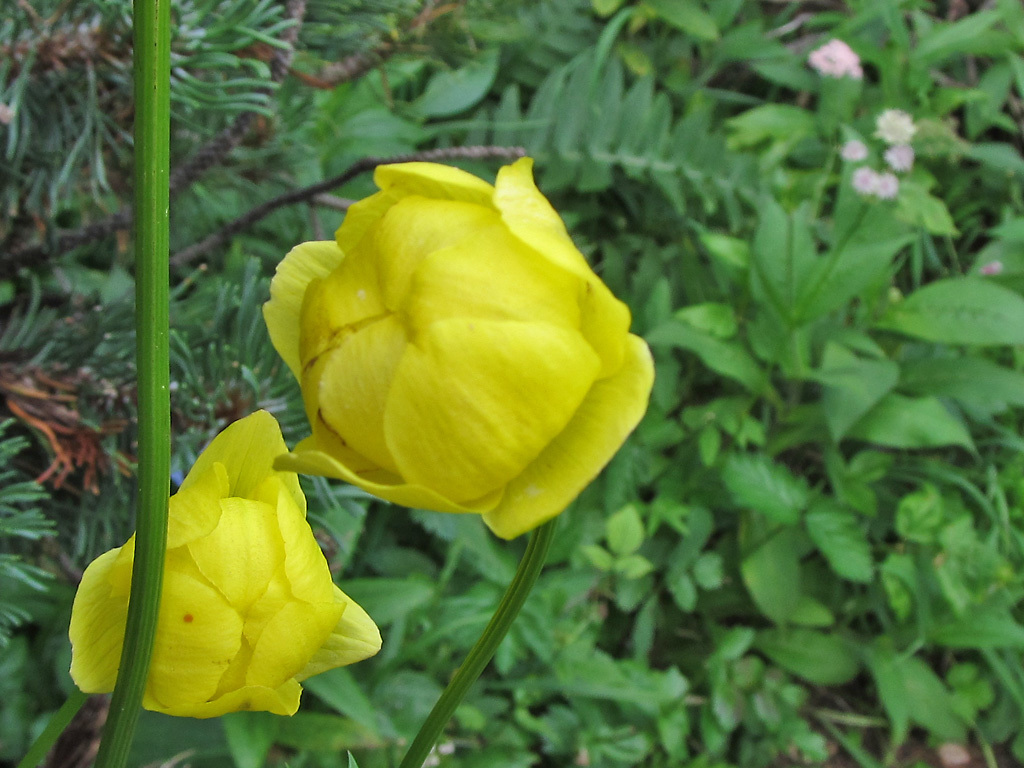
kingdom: Plantae
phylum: Tracheophyta
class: Magnoliopsida
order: Ranunculales
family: Ranunculaceae
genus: Trollius
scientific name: Trollius europaeus
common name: European globeflower
